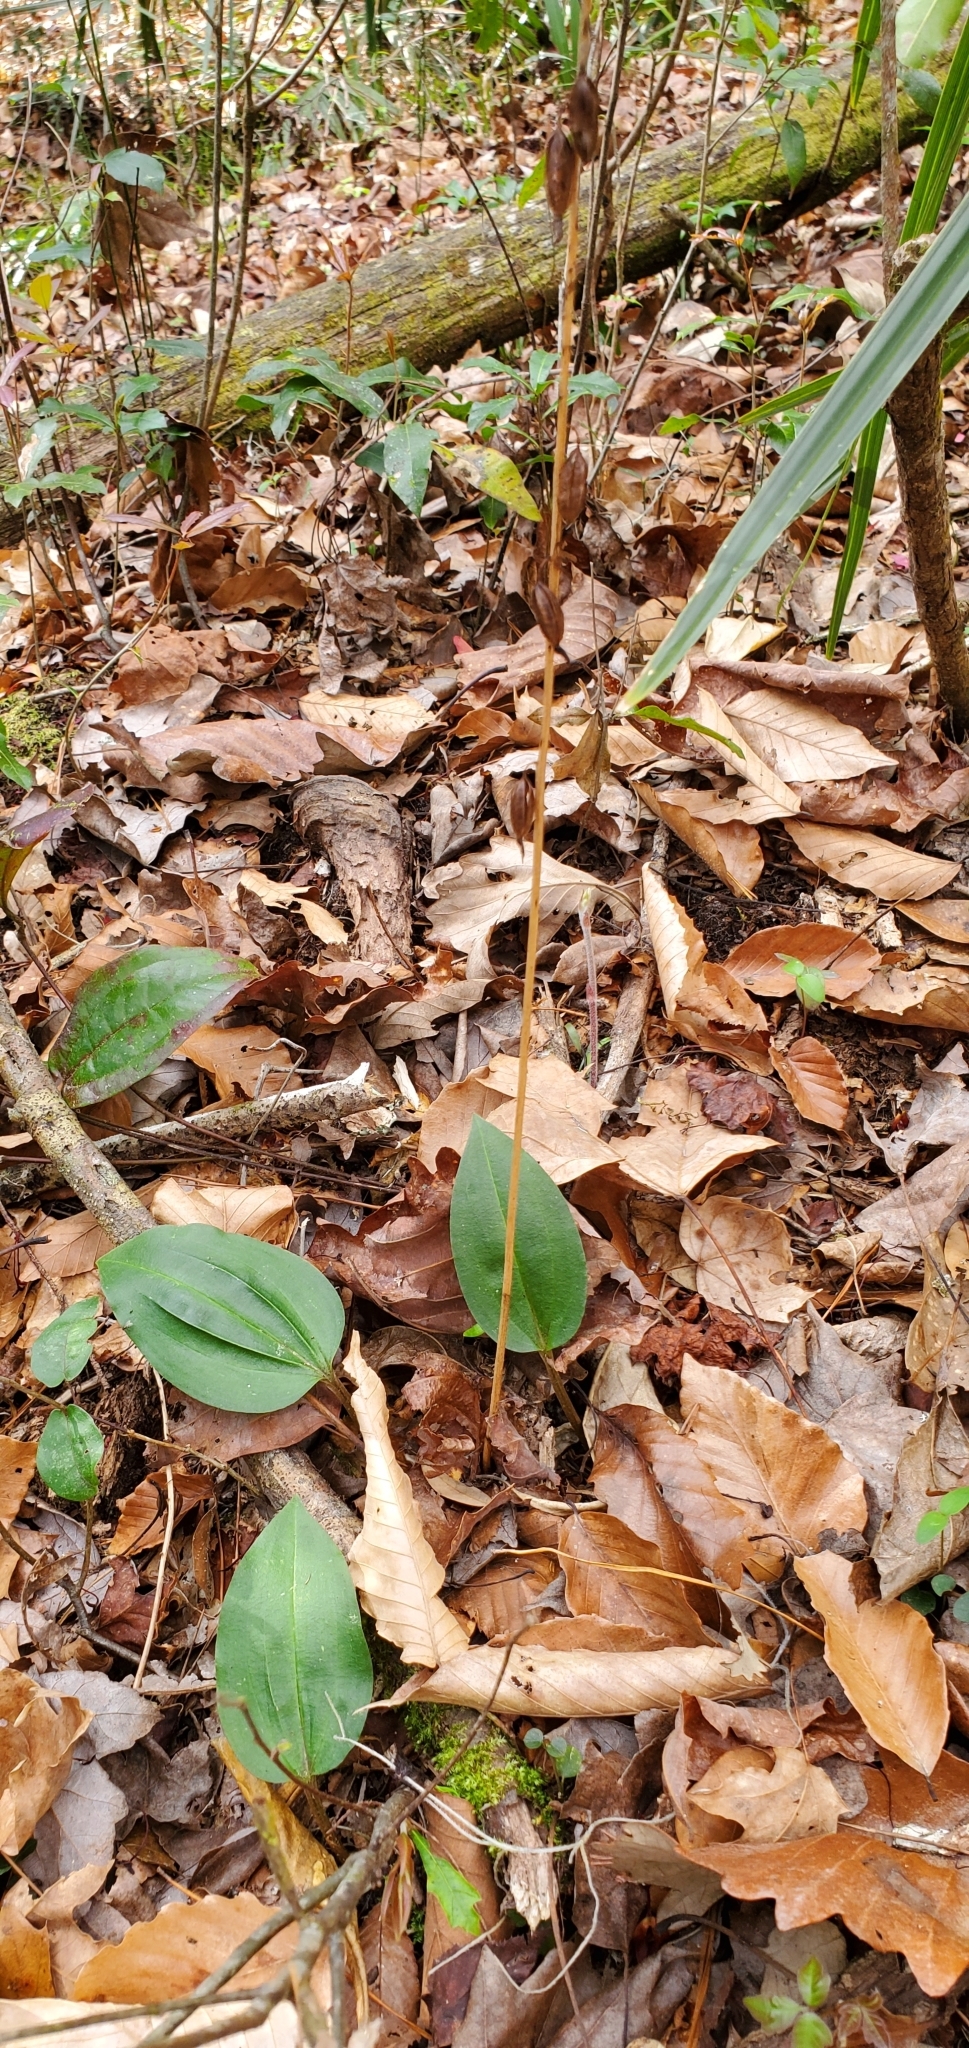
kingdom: Plantae
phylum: Tracheophyta
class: Liliopsida
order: Asparagales
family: Orchidaceae
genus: Tipularia
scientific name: Tipularia discolor
